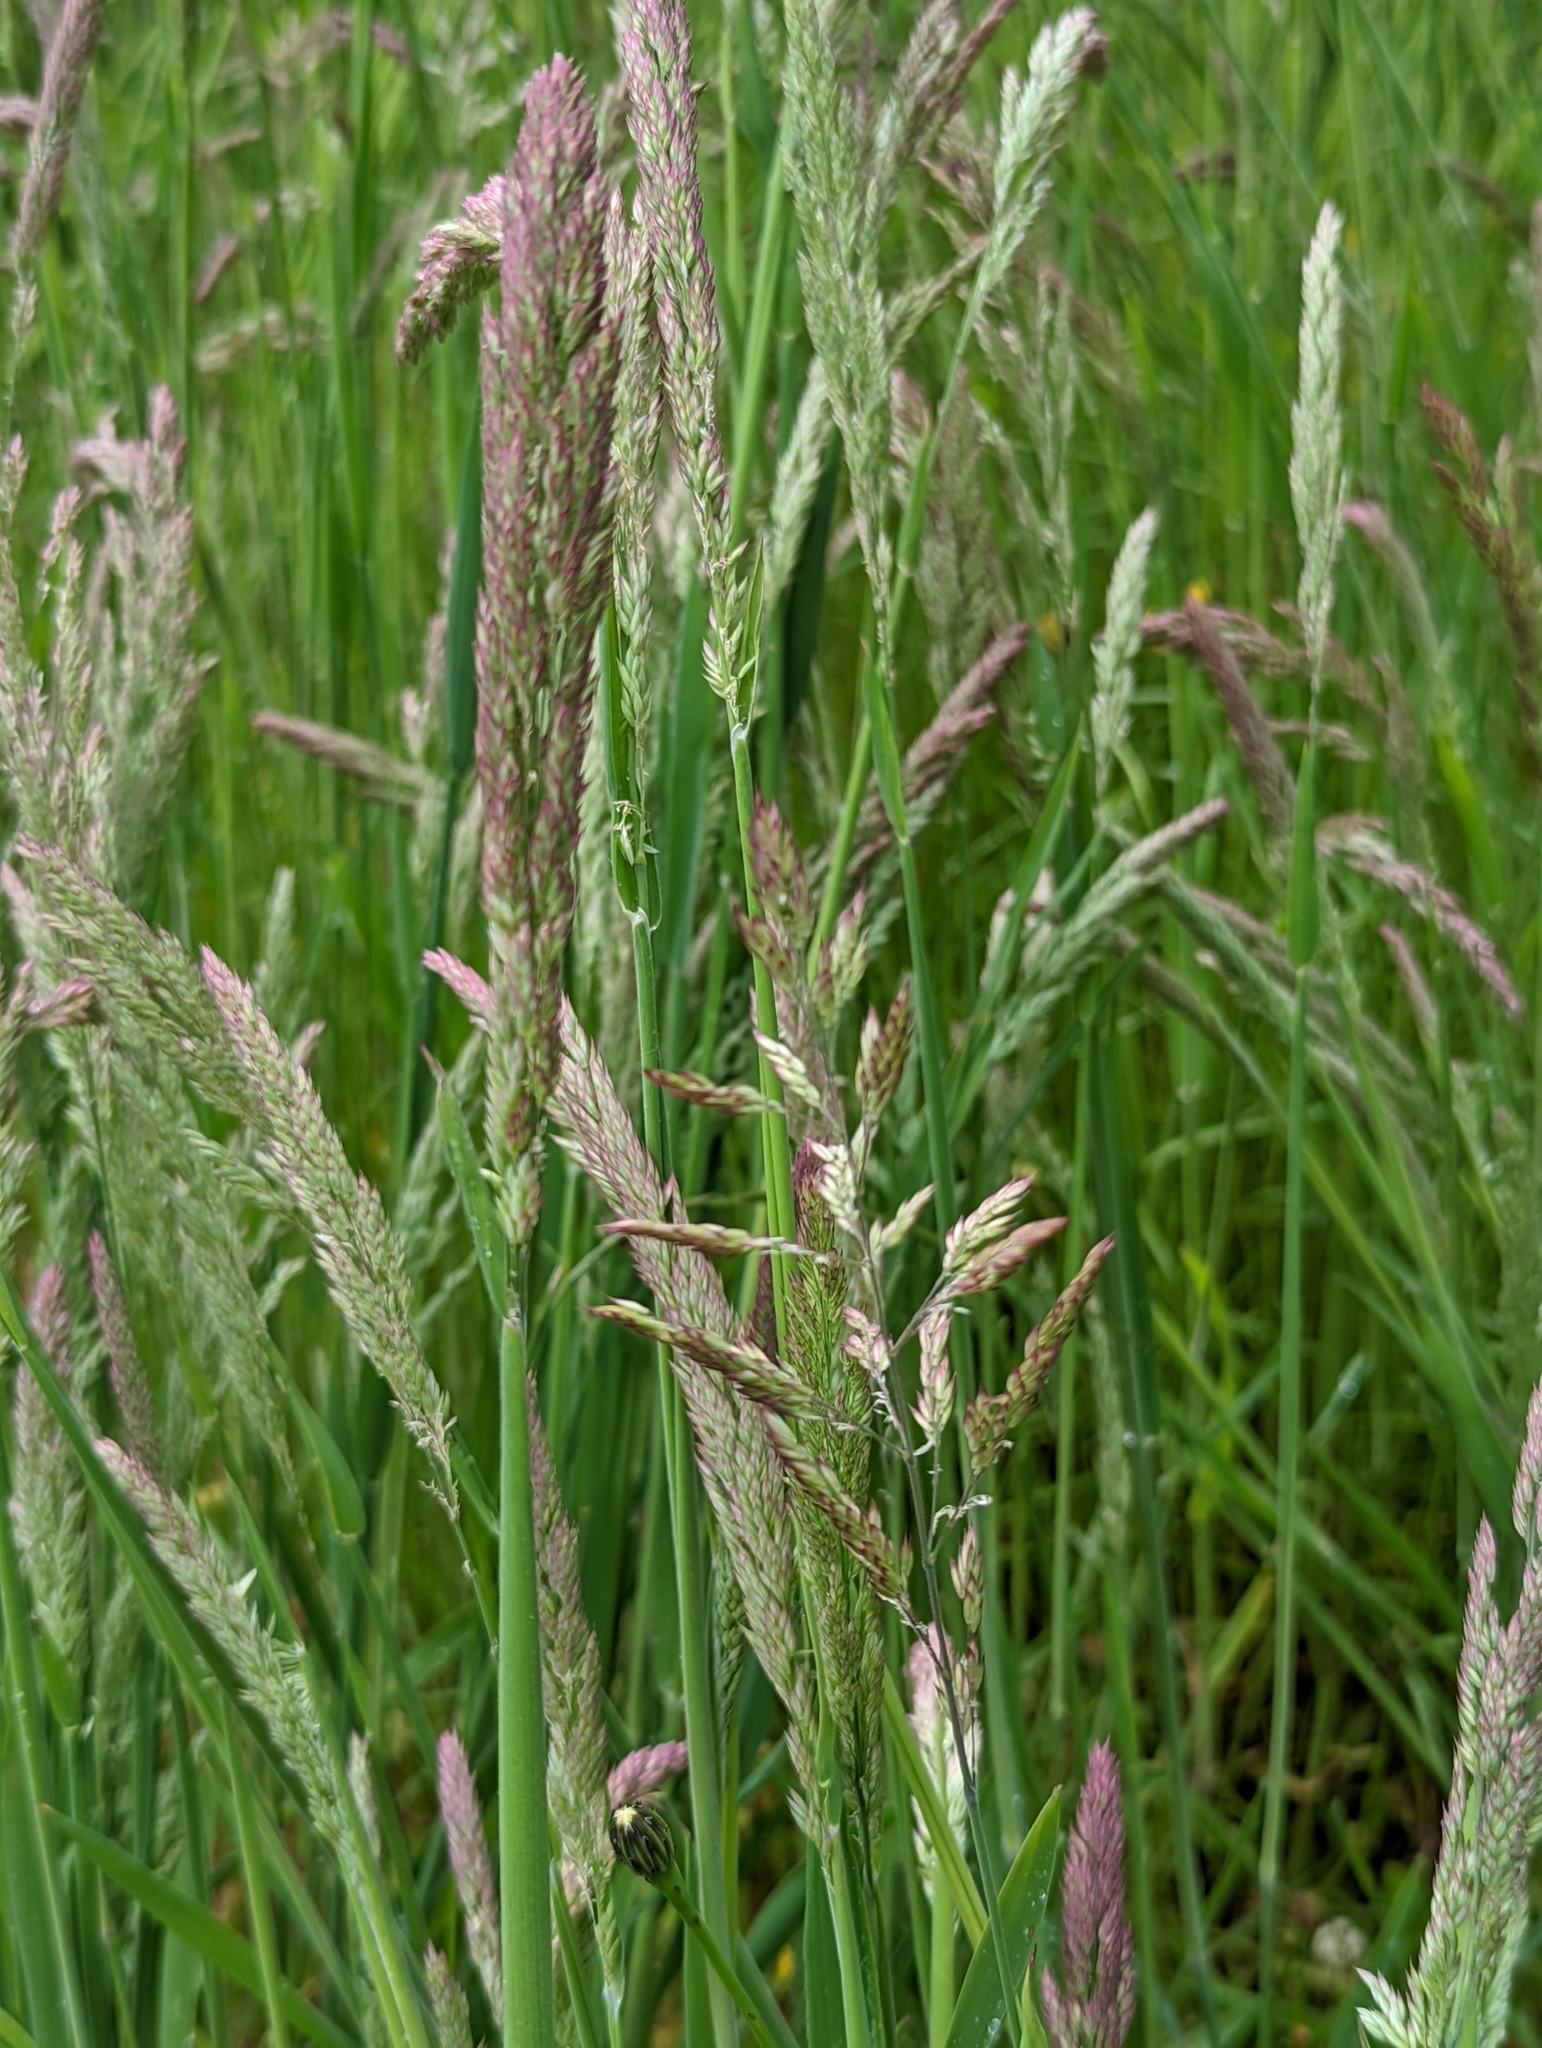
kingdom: Plantae
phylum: Tracheophyta
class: Liliopsida
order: Poales
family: Poaceae
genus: Holcus
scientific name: Holcus lanatus
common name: Yorkshire-fog
